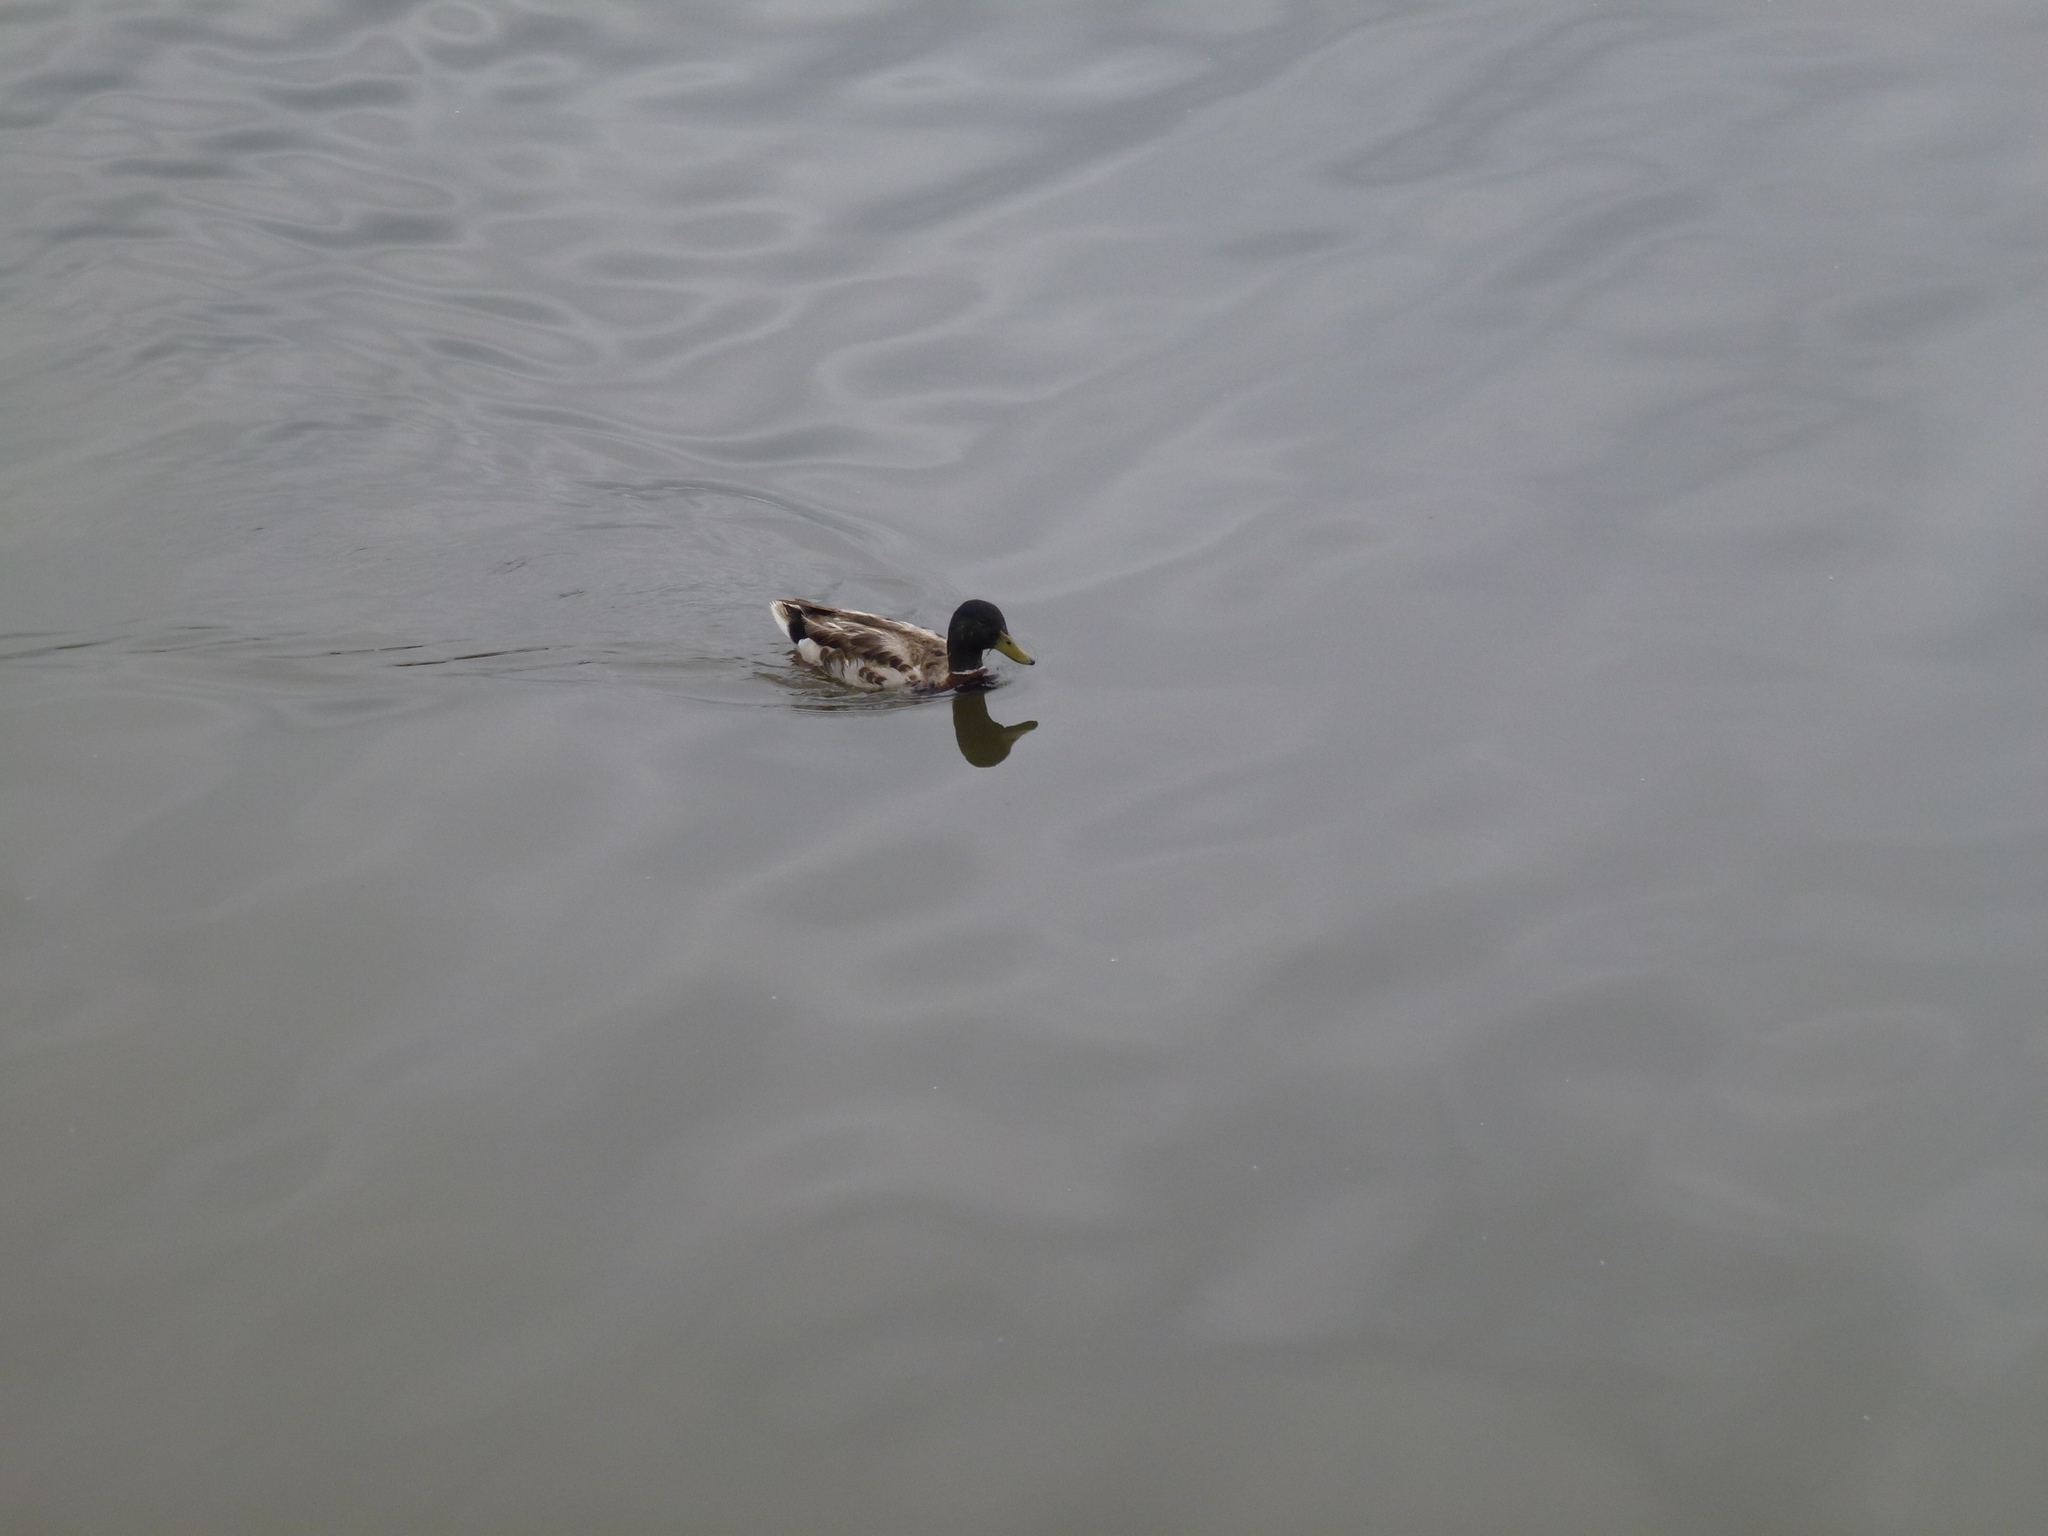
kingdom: Animalia
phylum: Chordata
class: Aves
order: Anseriformes
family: Anatidae
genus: Anas
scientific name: Anas platyrhynchos
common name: Mallard
